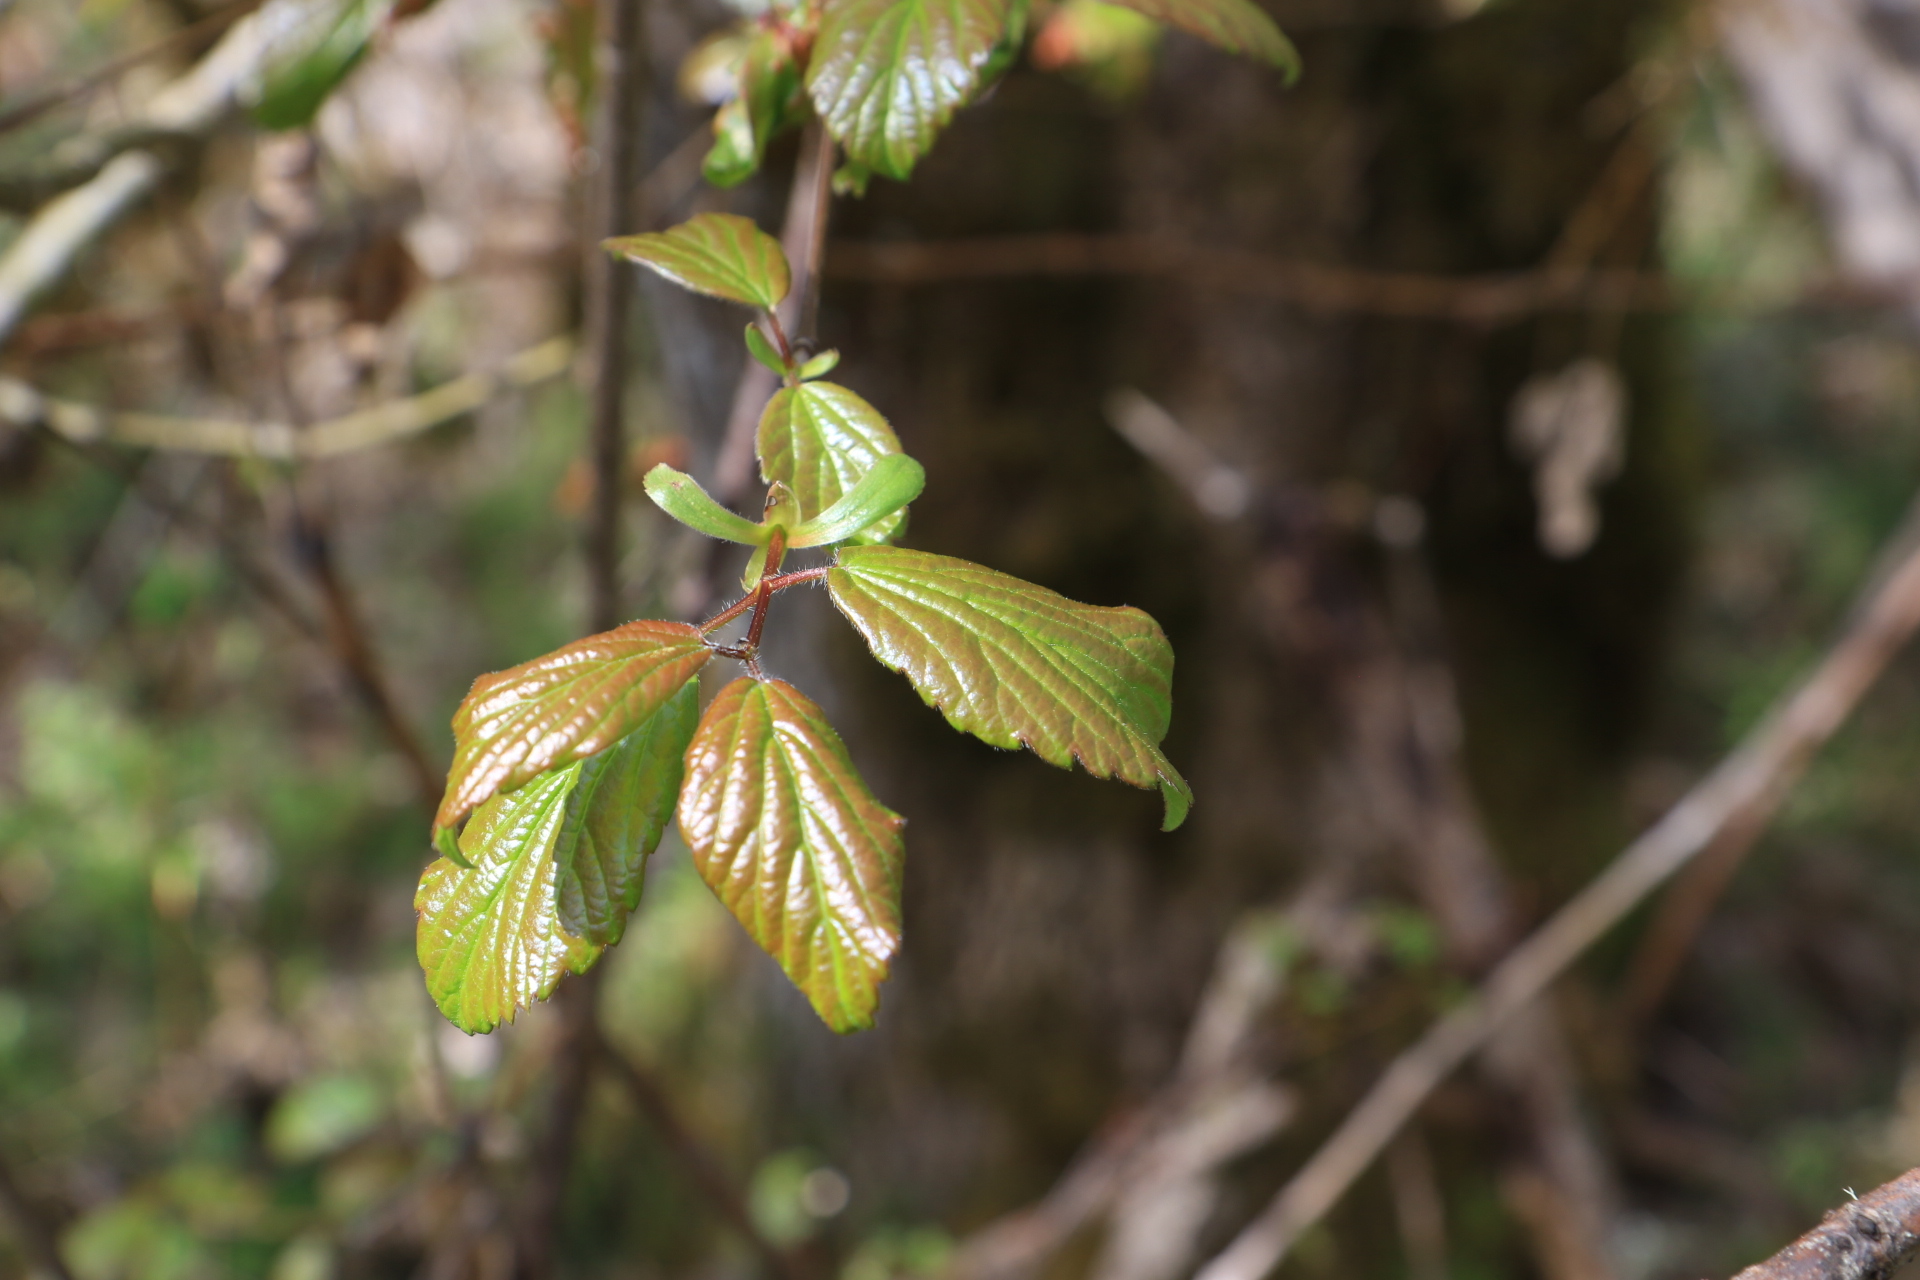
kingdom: Plantae
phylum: Tracheophyta
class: Magnoliopsida
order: Dipsacales
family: Viburnaceae
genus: Viburnum
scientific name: Viburnum ellipticum
